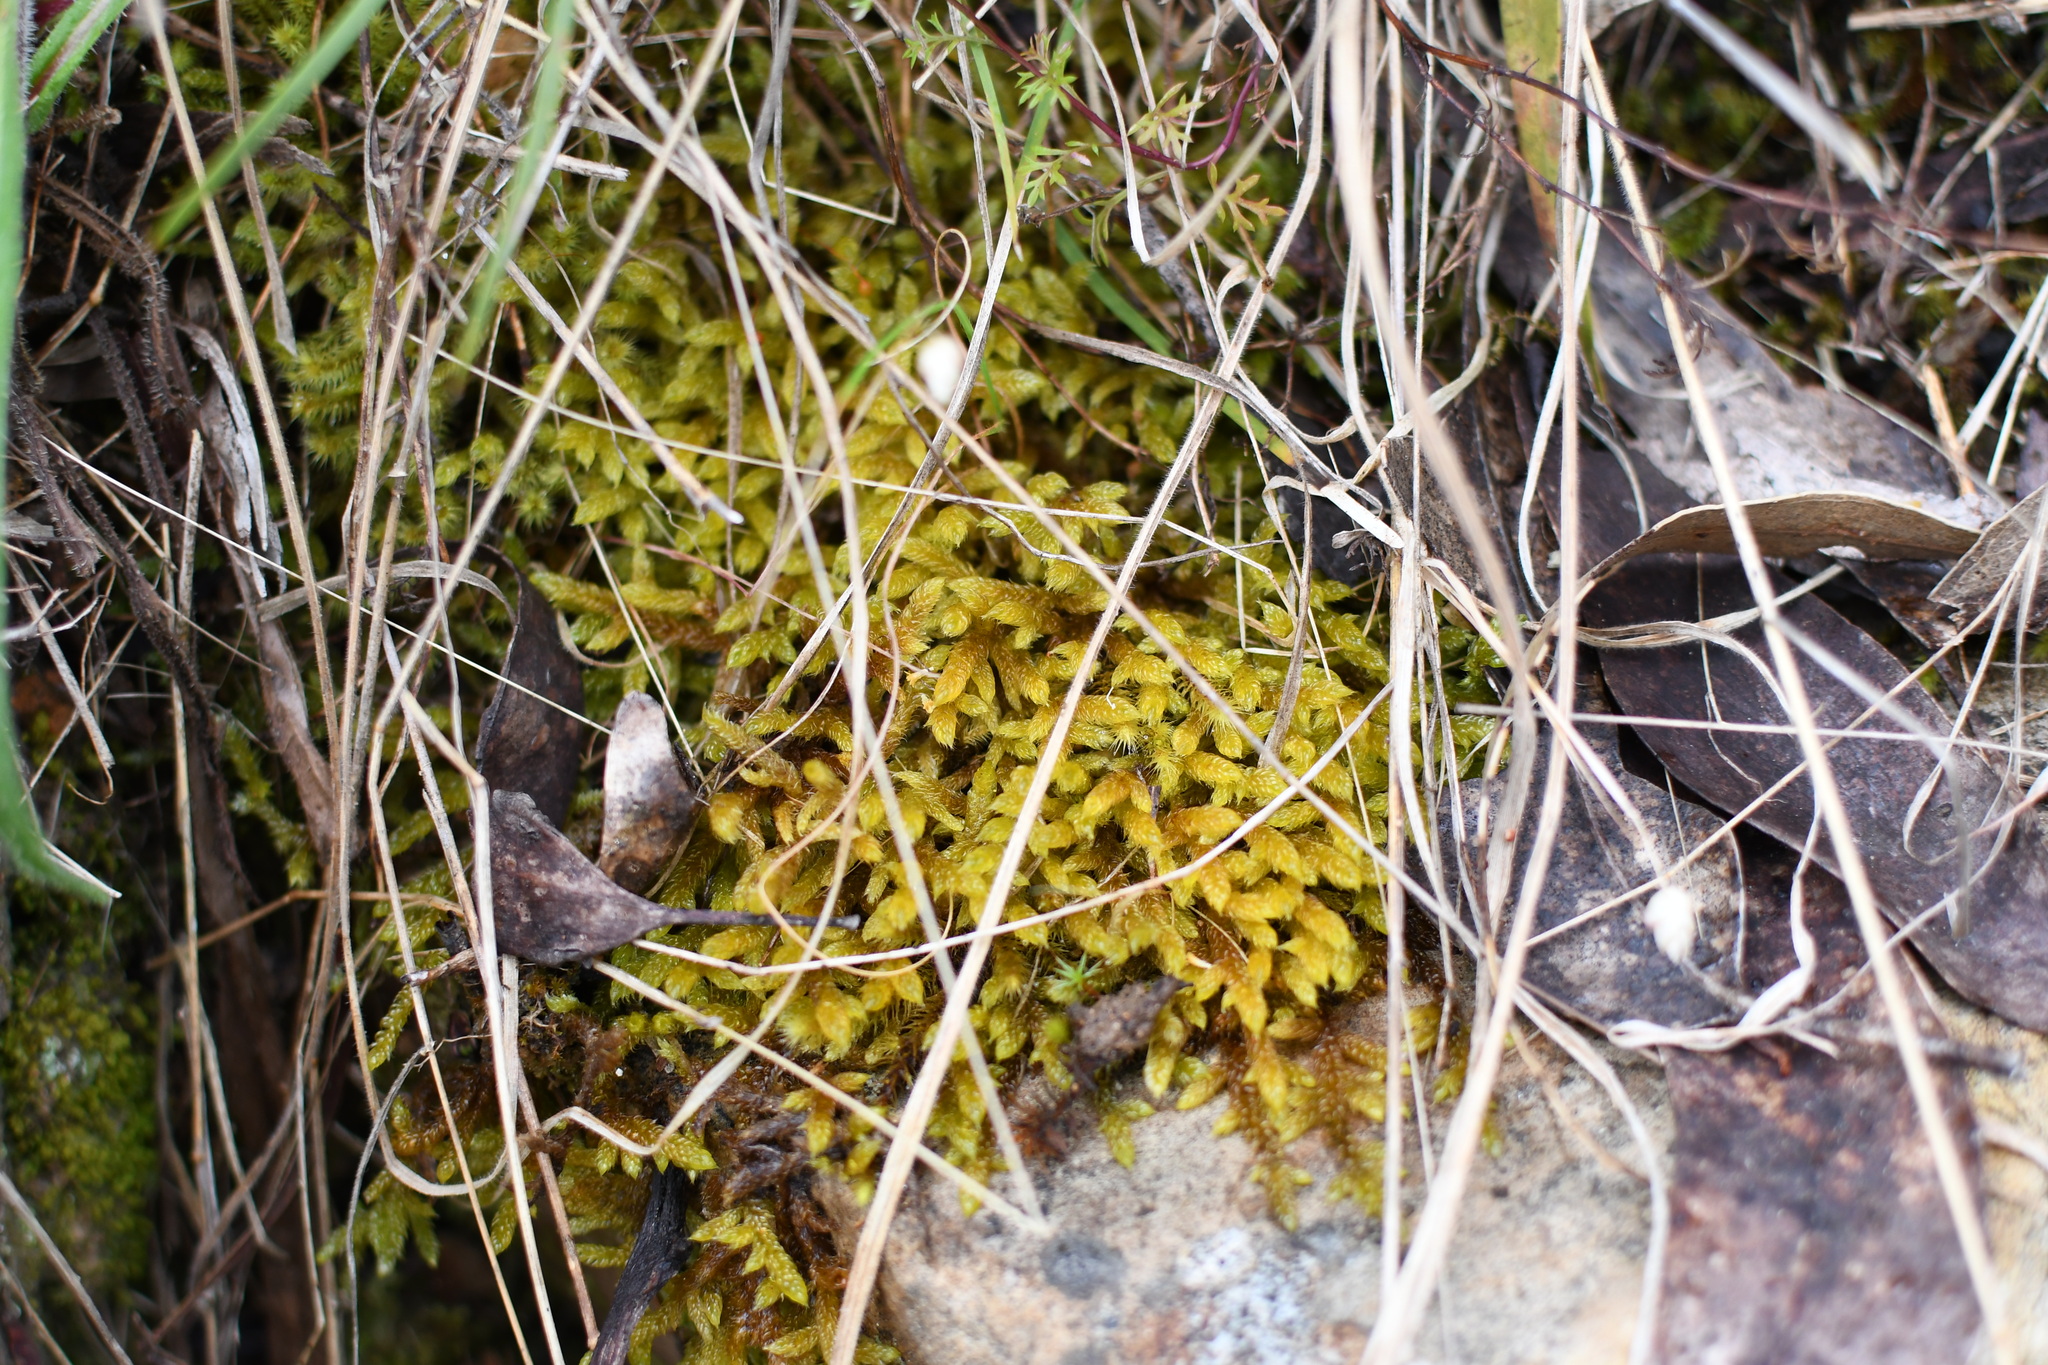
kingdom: Plantae
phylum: Bryophyta
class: Bryopsida
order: Hypnales
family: Hypnaceae
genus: Hypnum
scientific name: Hypnum cupressiforme
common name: Cypress-leaved plait-moss
